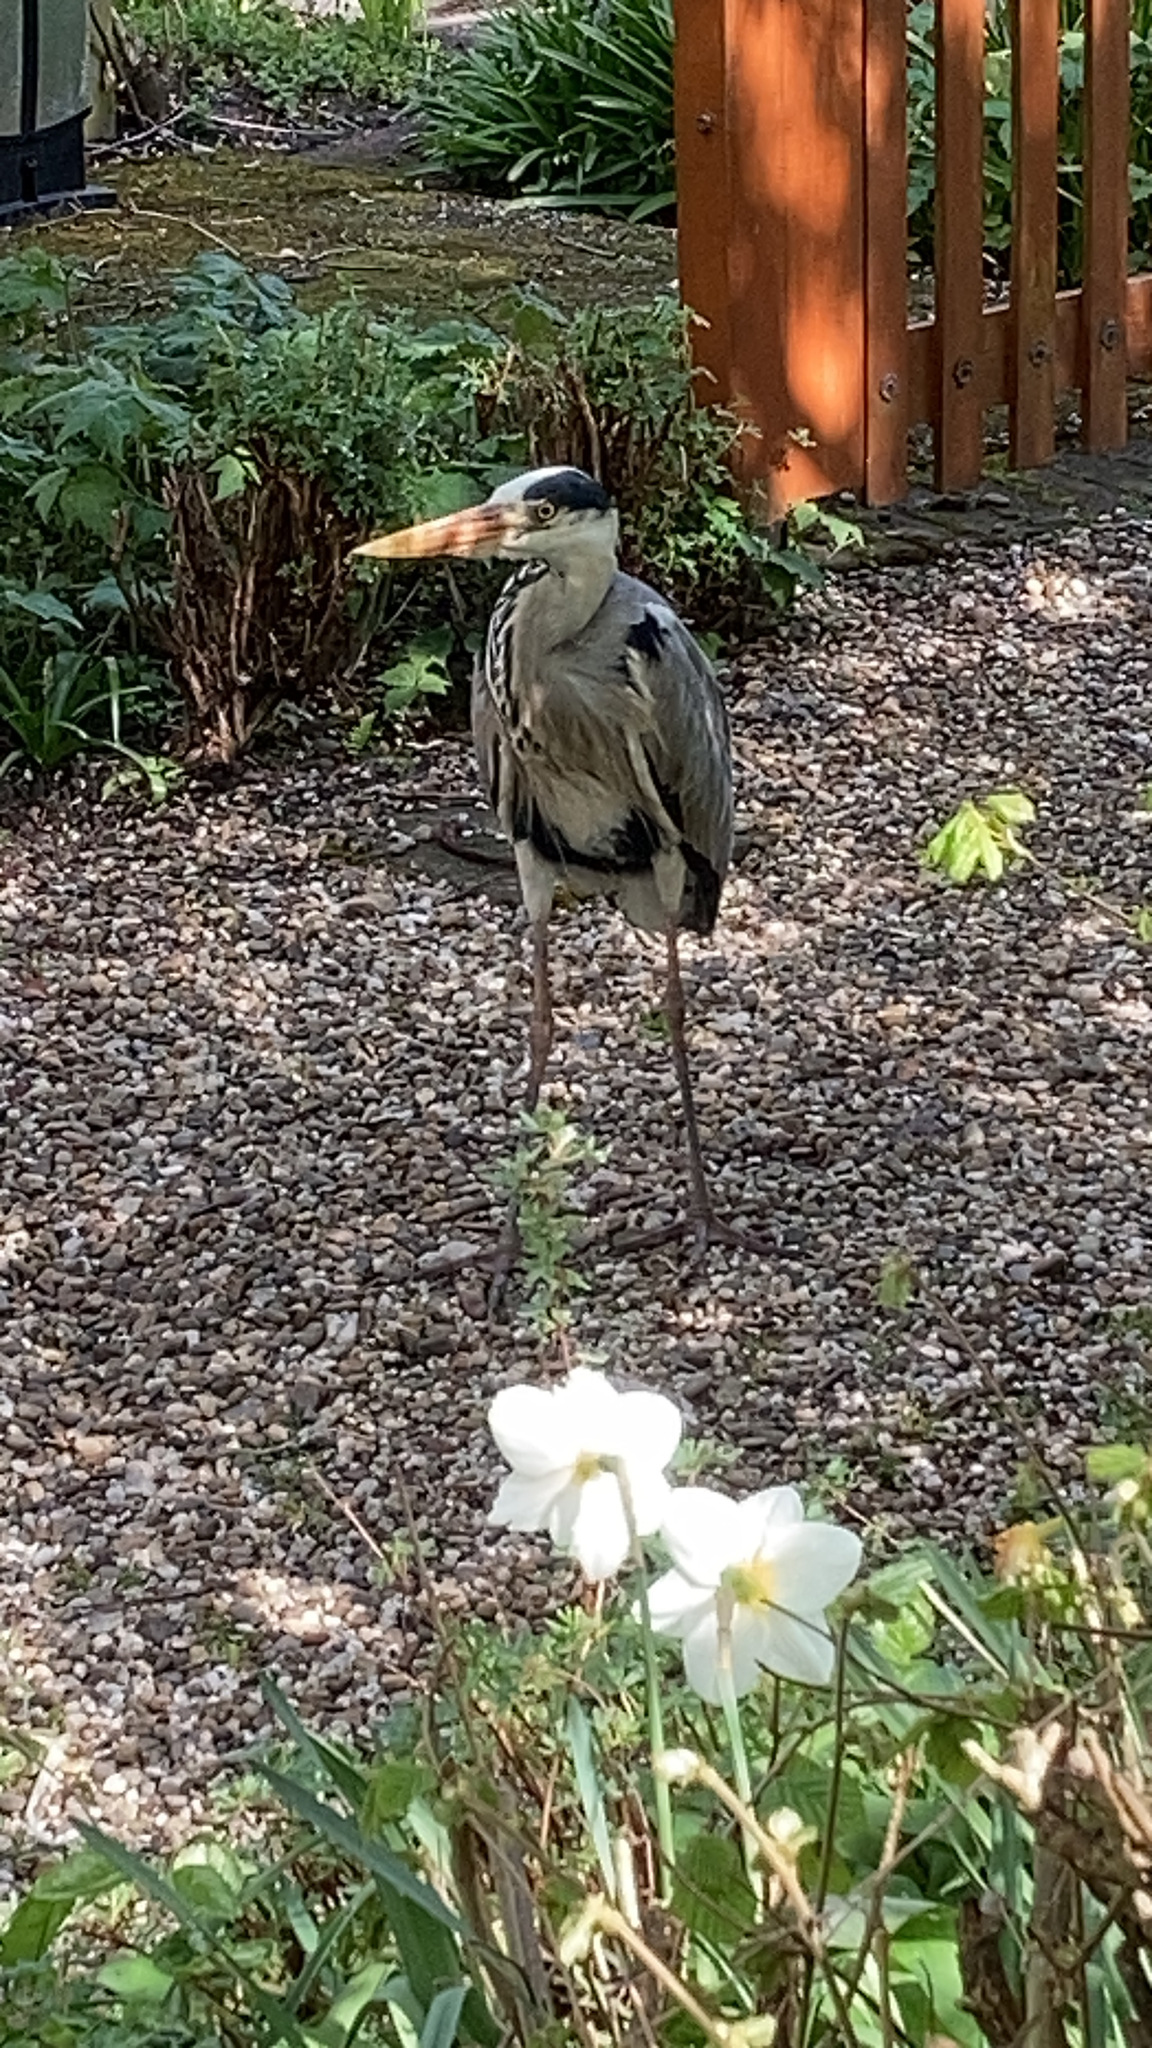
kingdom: Animalia
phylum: Chordata
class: Aves
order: Pelecaniformes
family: Ardeidae
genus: Ardea
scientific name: Ardea cinerea
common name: Grey heron
